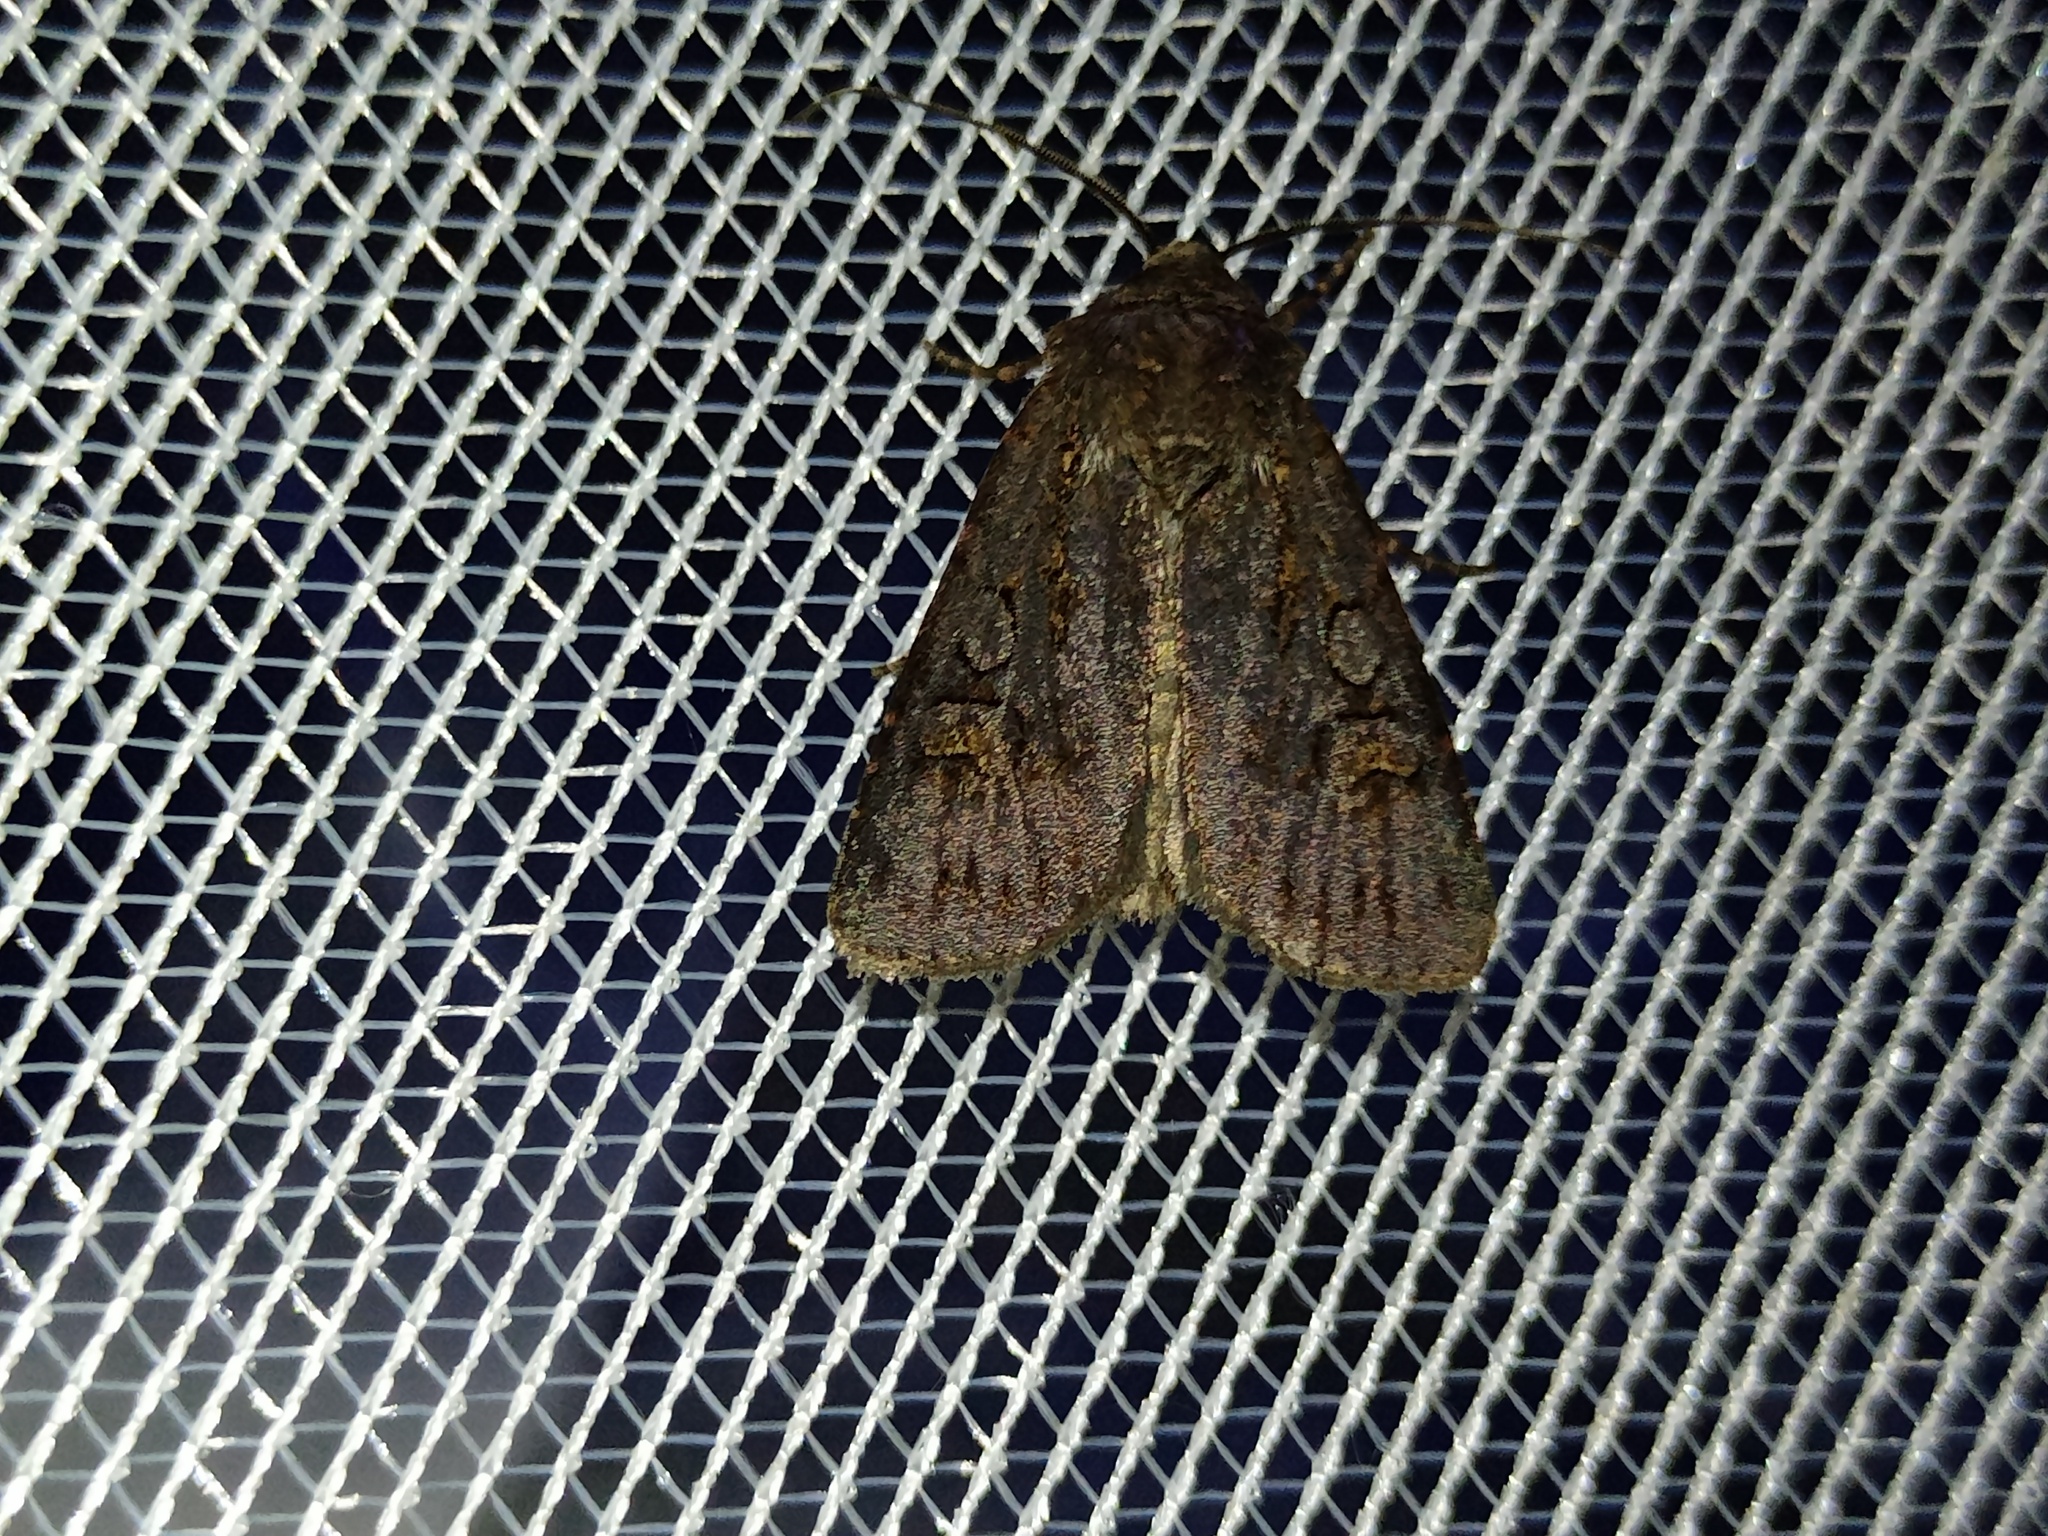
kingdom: Animalia
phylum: Arthropoda
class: Insecta
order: Lepidoptera
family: Noctuidae
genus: Euxoa
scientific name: Euxoa nigricans
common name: Garden dart
